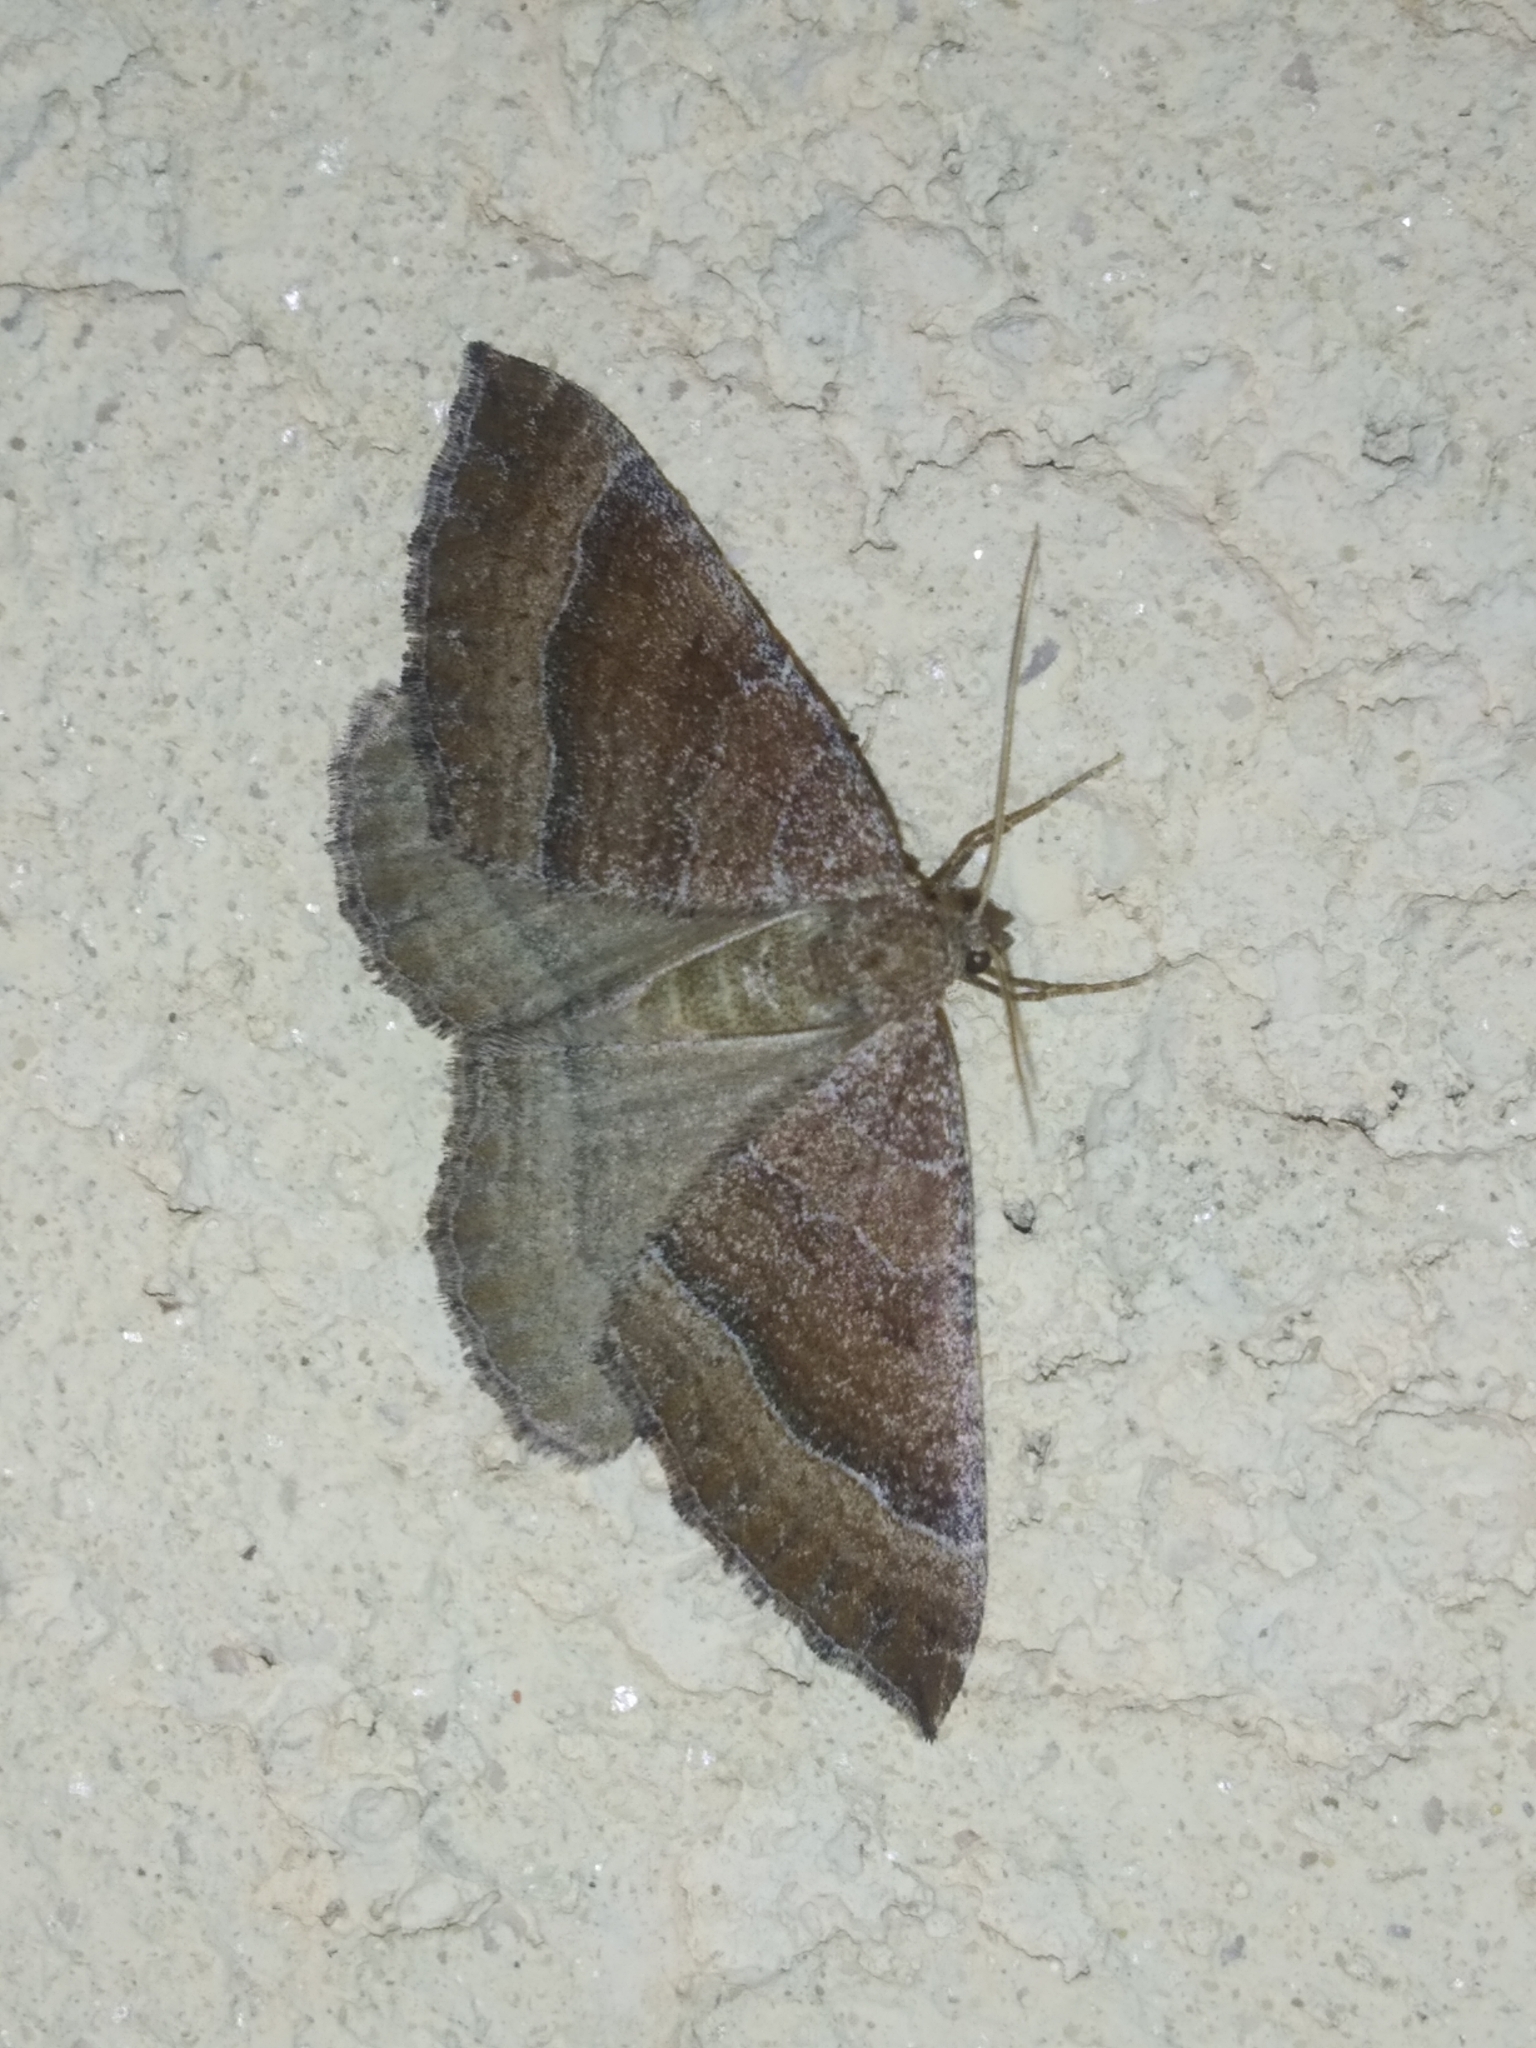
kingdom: Animalia
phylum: Arthropoda
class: Insecta
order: Lepidoptera
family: Geometridae
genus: Larentia
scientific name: Larentia clavaria
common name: Mallow
